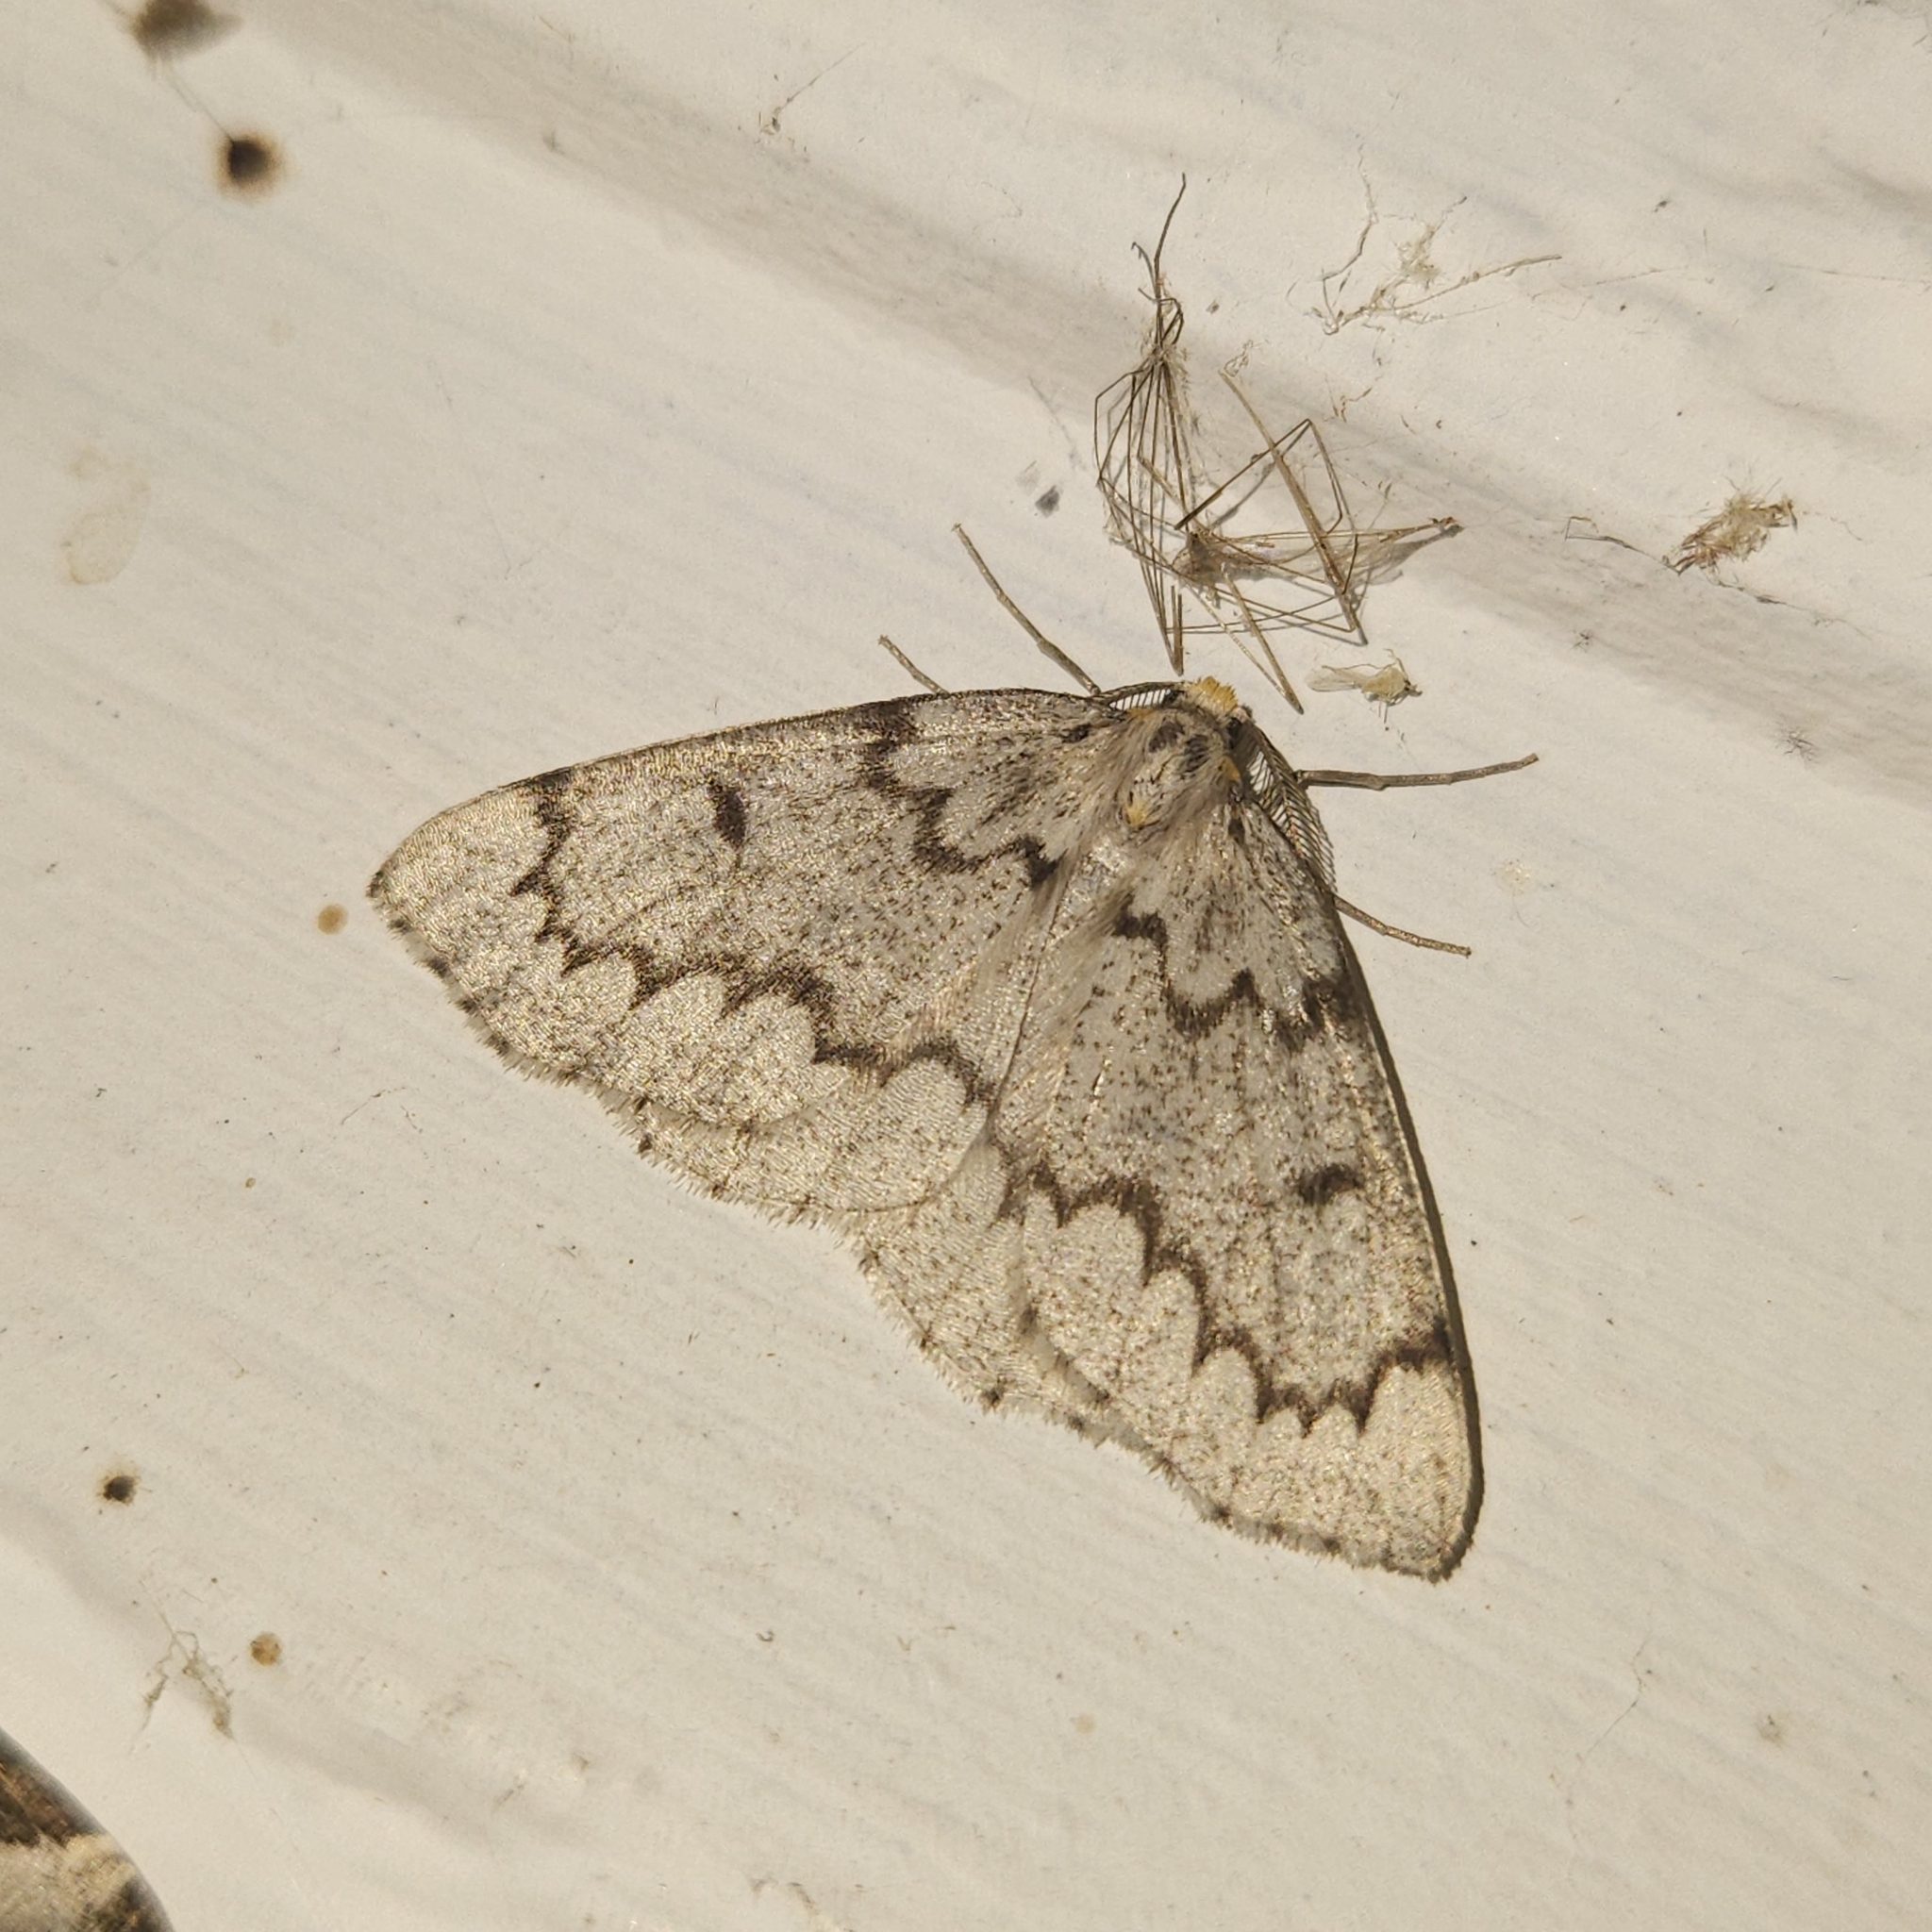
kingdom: Animalia
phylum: Arthropoda
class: Insecta
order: Lepidoptera
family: Geometridae
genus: Nepytia
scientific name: Nepytia canosaria
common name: False hemlock looper
